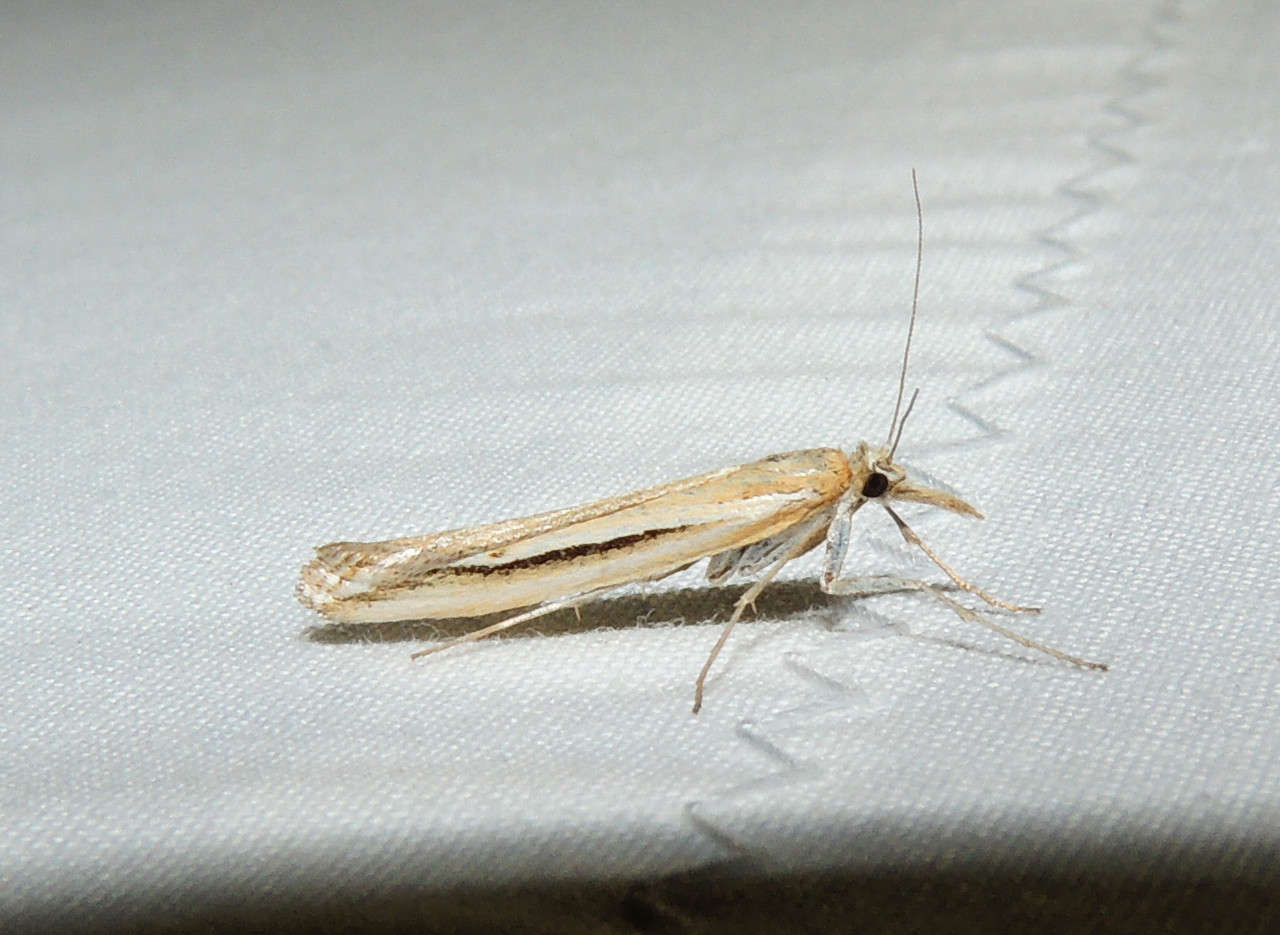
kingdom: Animalia
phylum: Arthropoda
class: Insecta
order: Lepidoptera
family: Crambidae
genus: Hednota
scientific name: Hednota acontophora
